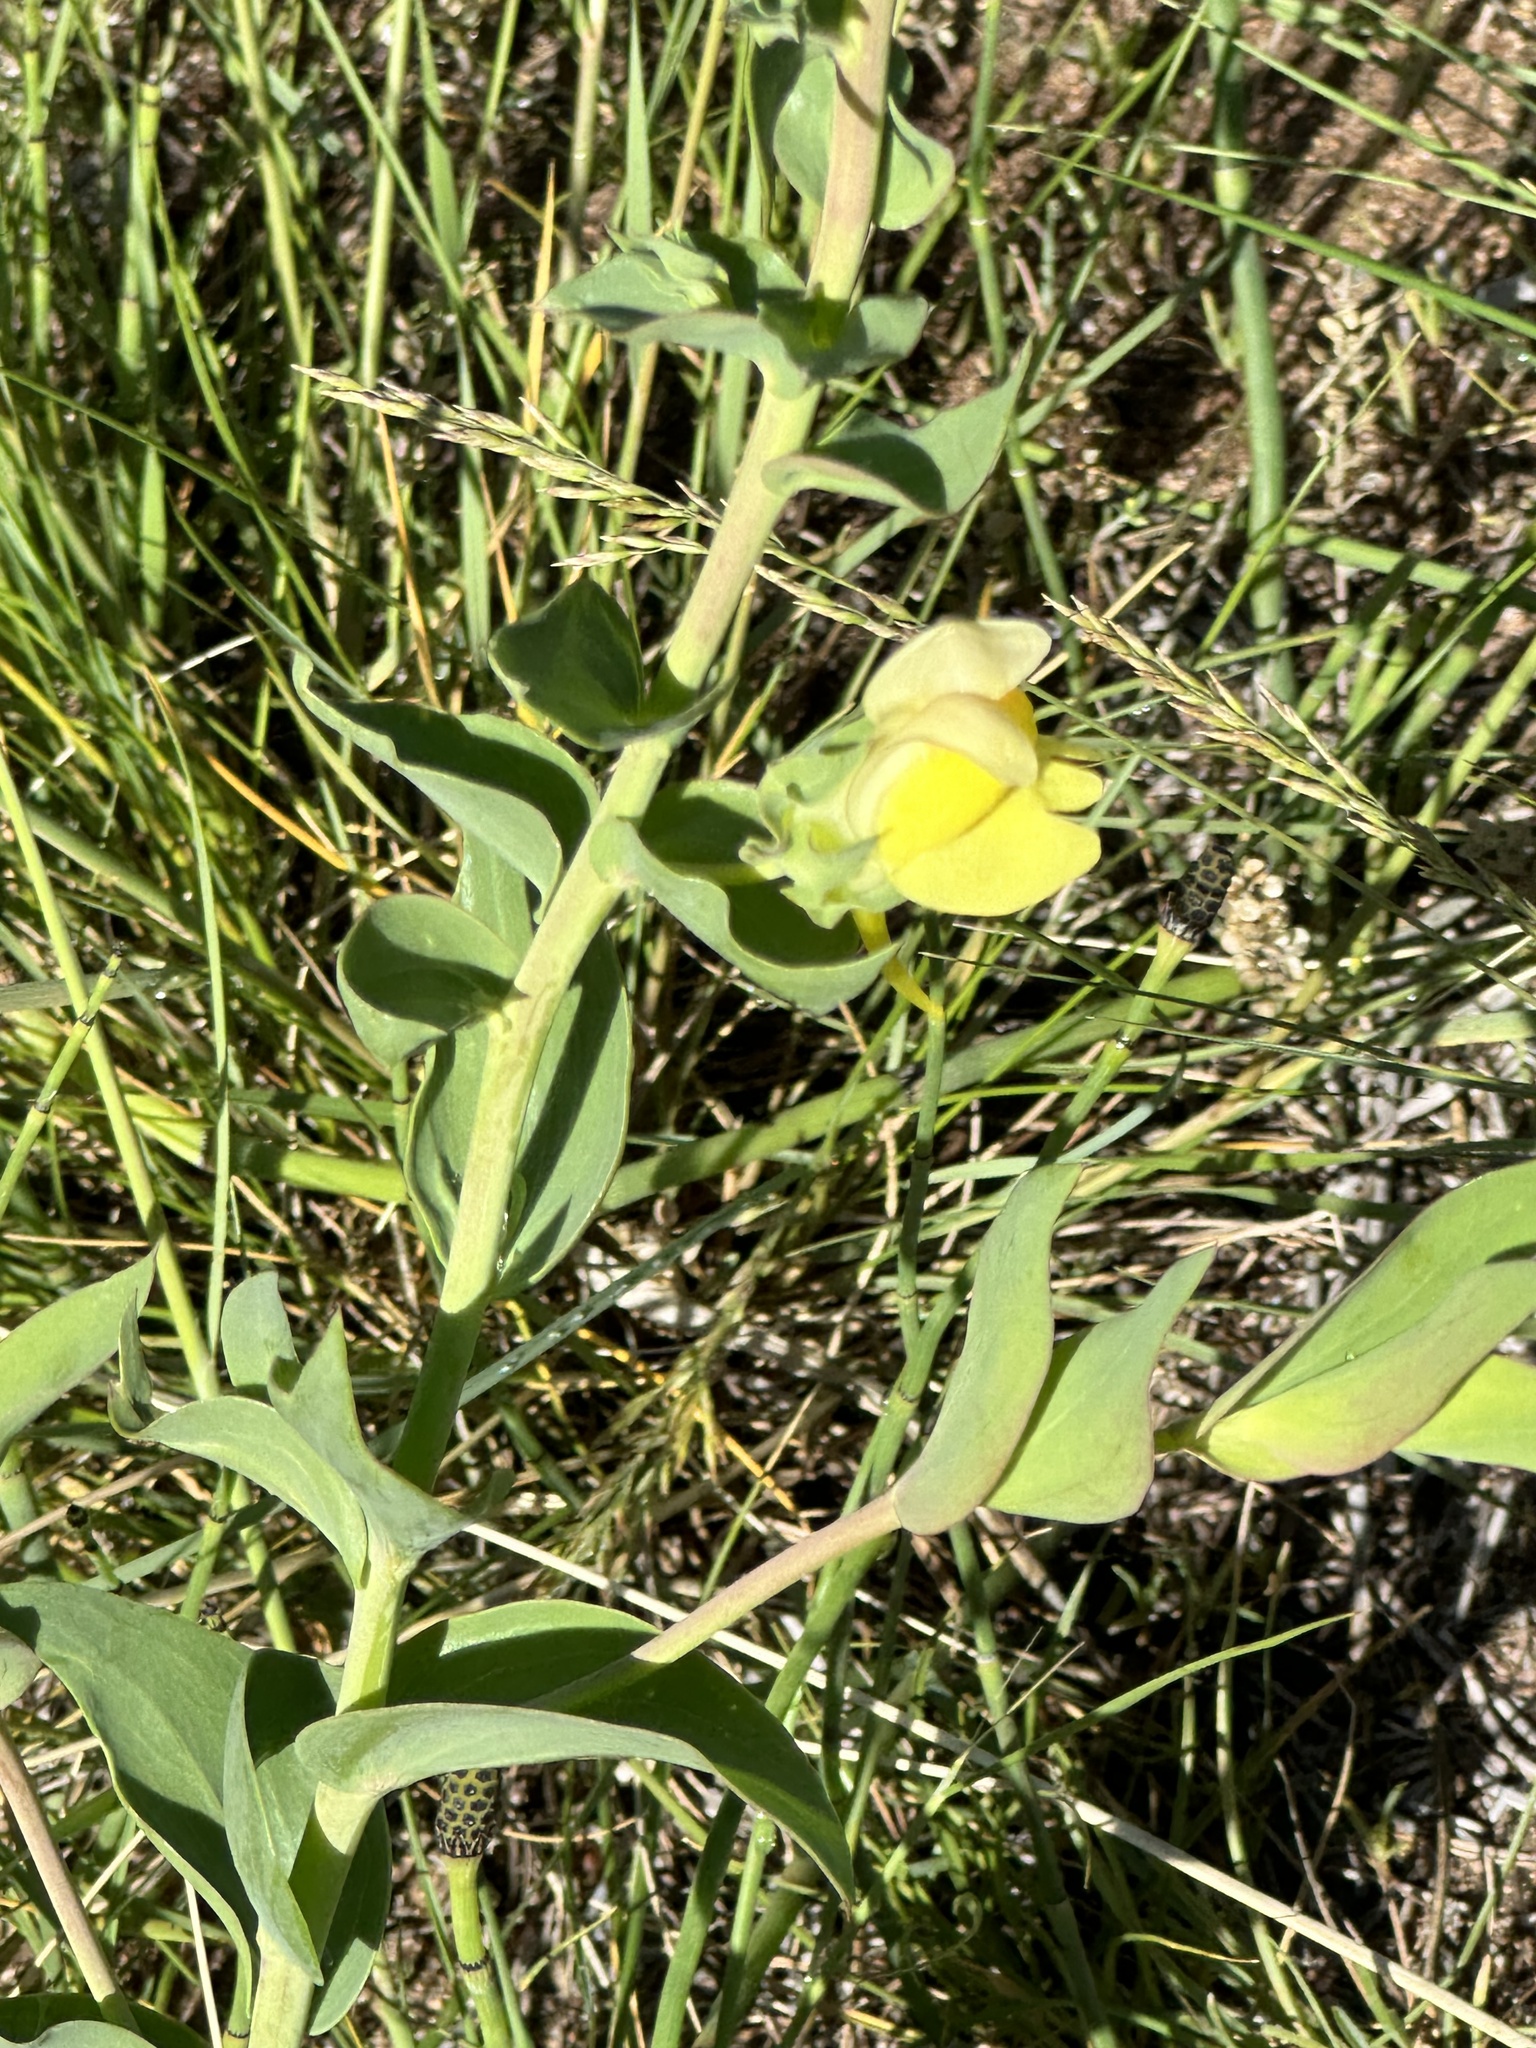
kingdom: Plantae
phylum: Tracheophyta
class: Magnoliopsida
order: Lamiales
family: Plantaginaceae
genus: Linaria
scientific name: Linaria dalmatica
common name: Dalmatian toadflax
